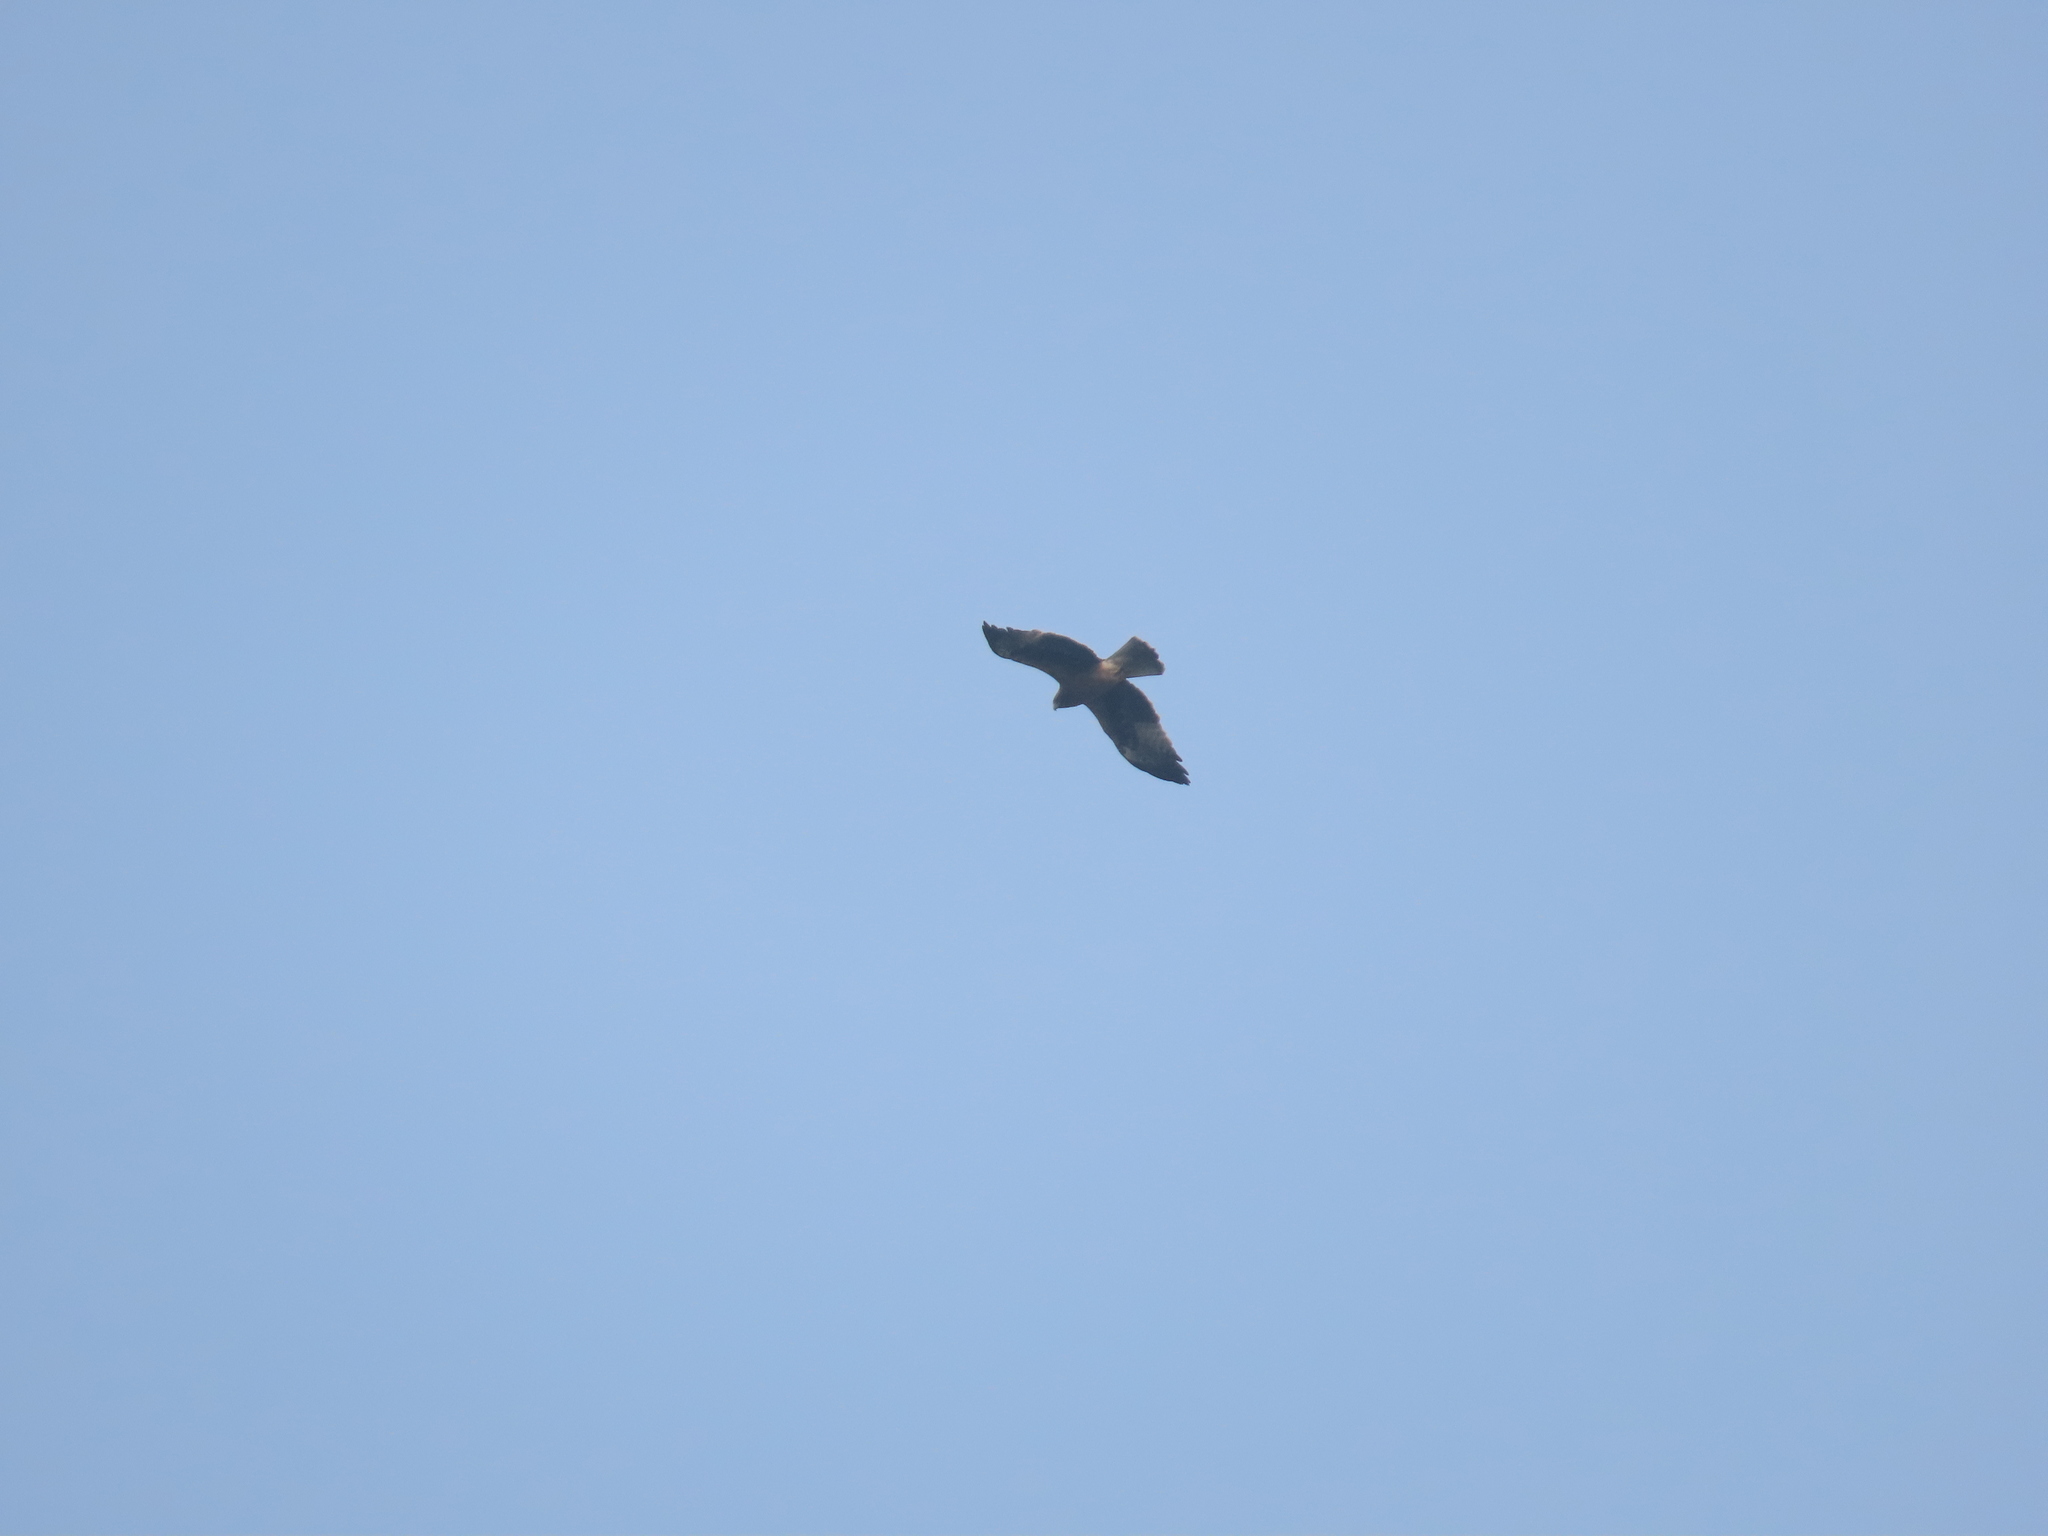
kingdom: Animalia
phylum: Chordata
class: Aves
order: Accipitriformes
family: Accipitridae
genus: Hieraaetus
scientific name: Hieraaetus pennatus
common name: Booted eagle
